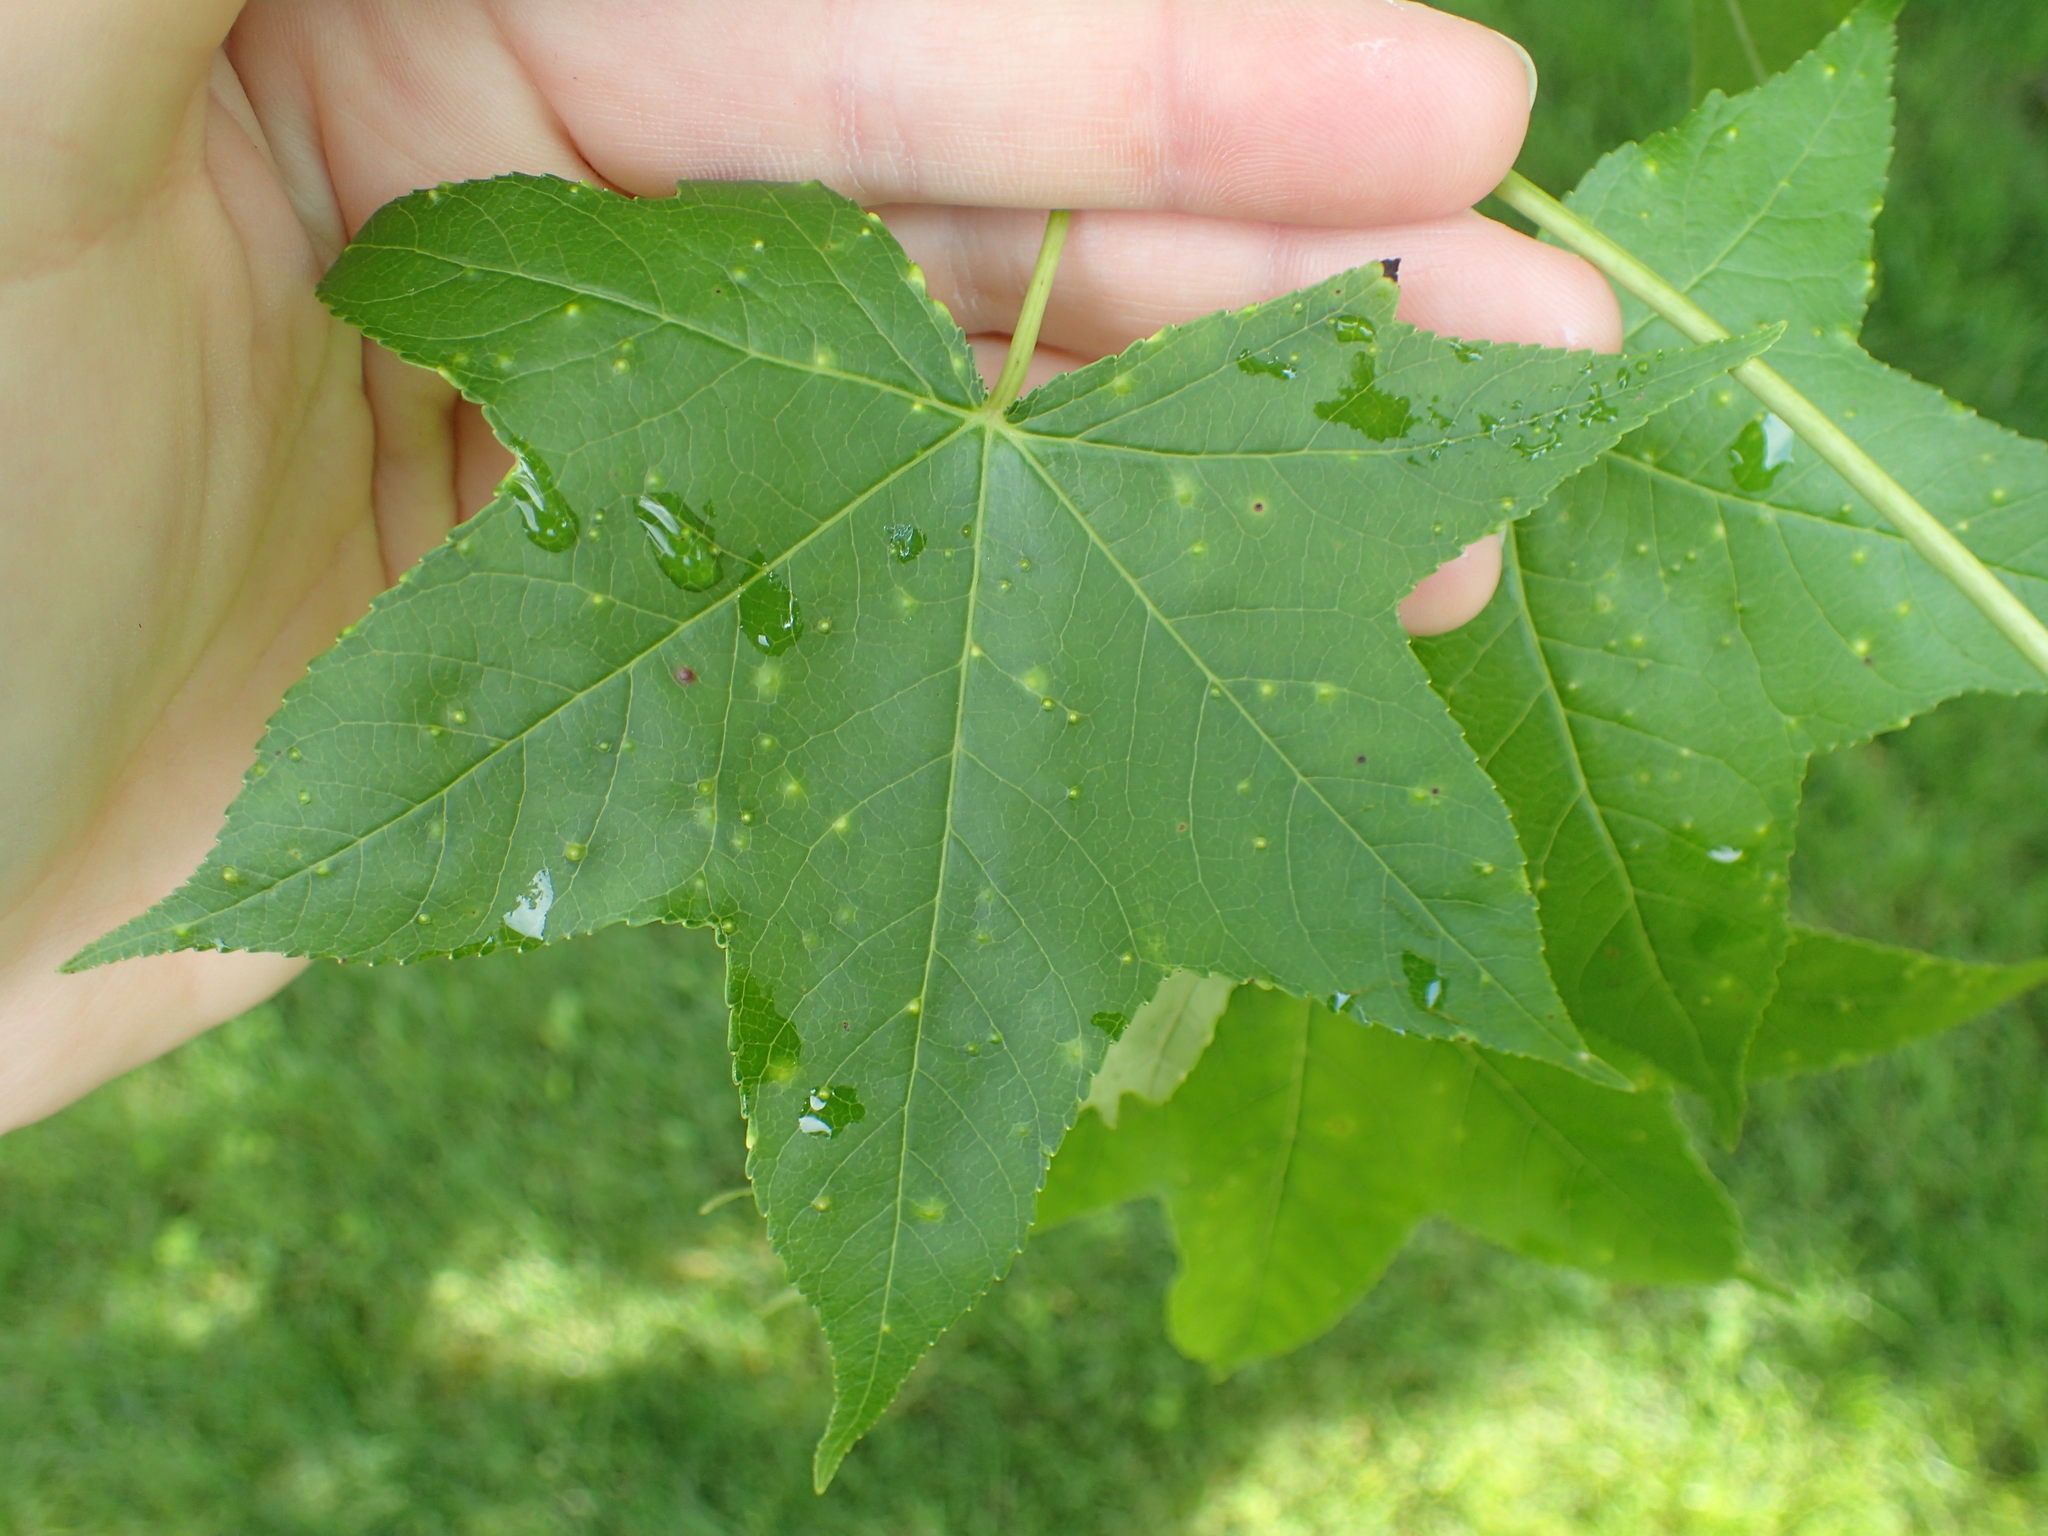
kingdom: Animalia
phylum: Arthropoda
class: Insecta
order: Hemiptera
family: Diaspididae
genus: Diaspidiotus
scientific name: Diaspidiotus liquidambaris
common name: Sweet gum scale
